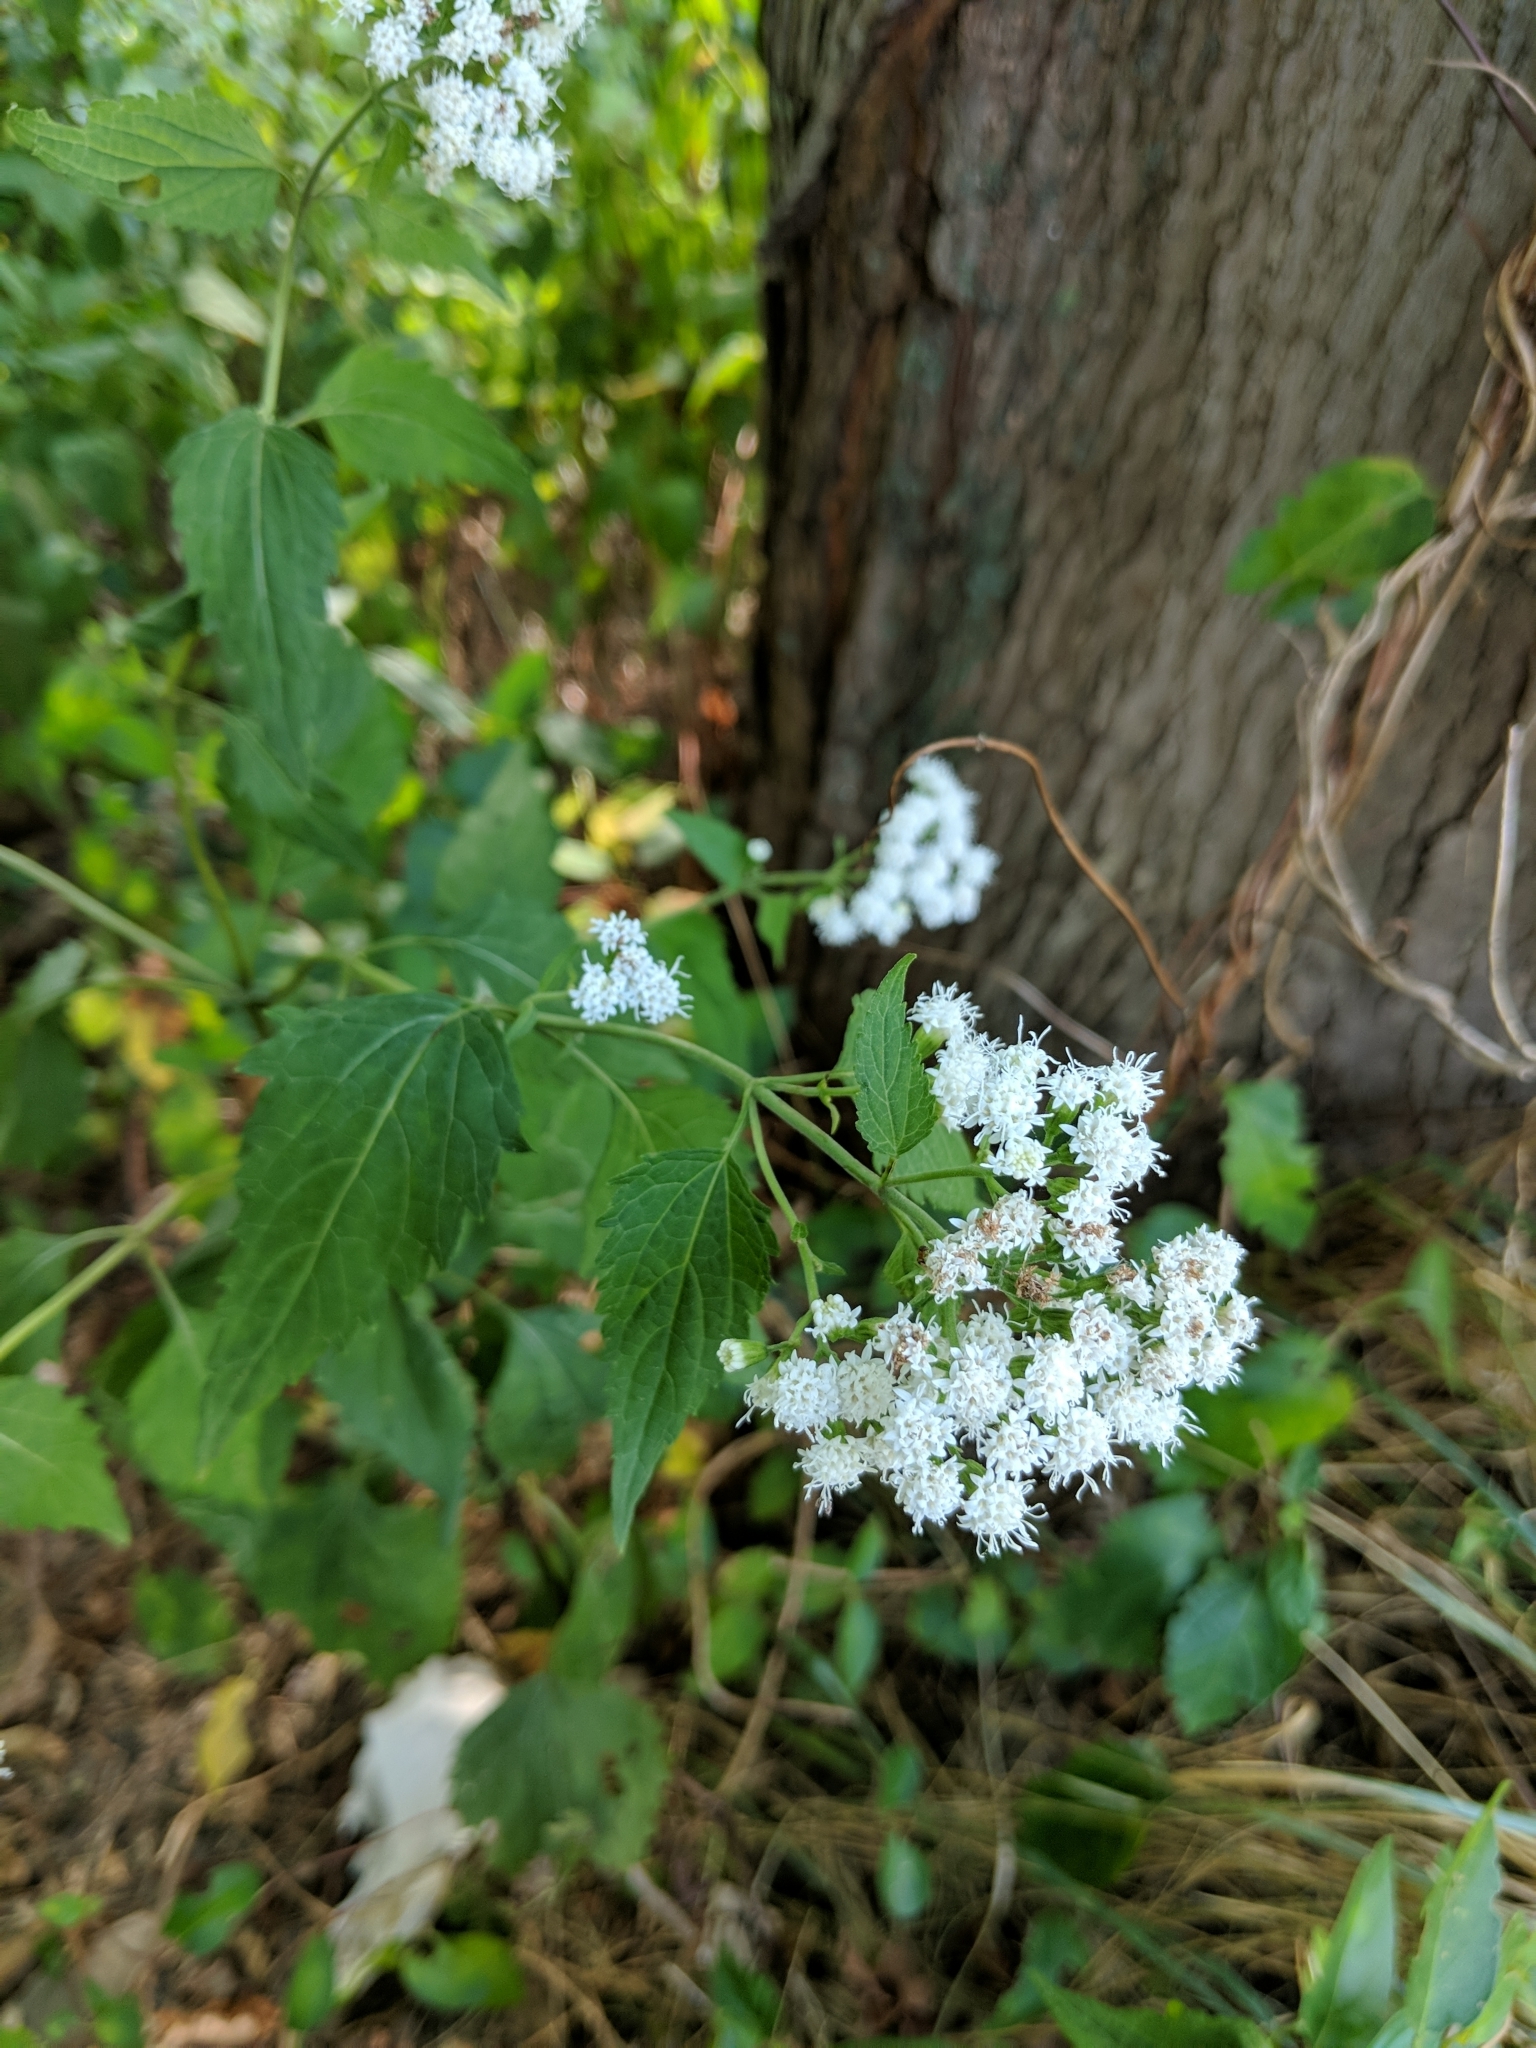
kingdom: Plantae
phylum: Tracheophyta
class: Magnoliopsida
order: Asterales
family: Asteraceae
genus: Ageratina
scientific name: Ageratina altissima
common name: White snakeroot
